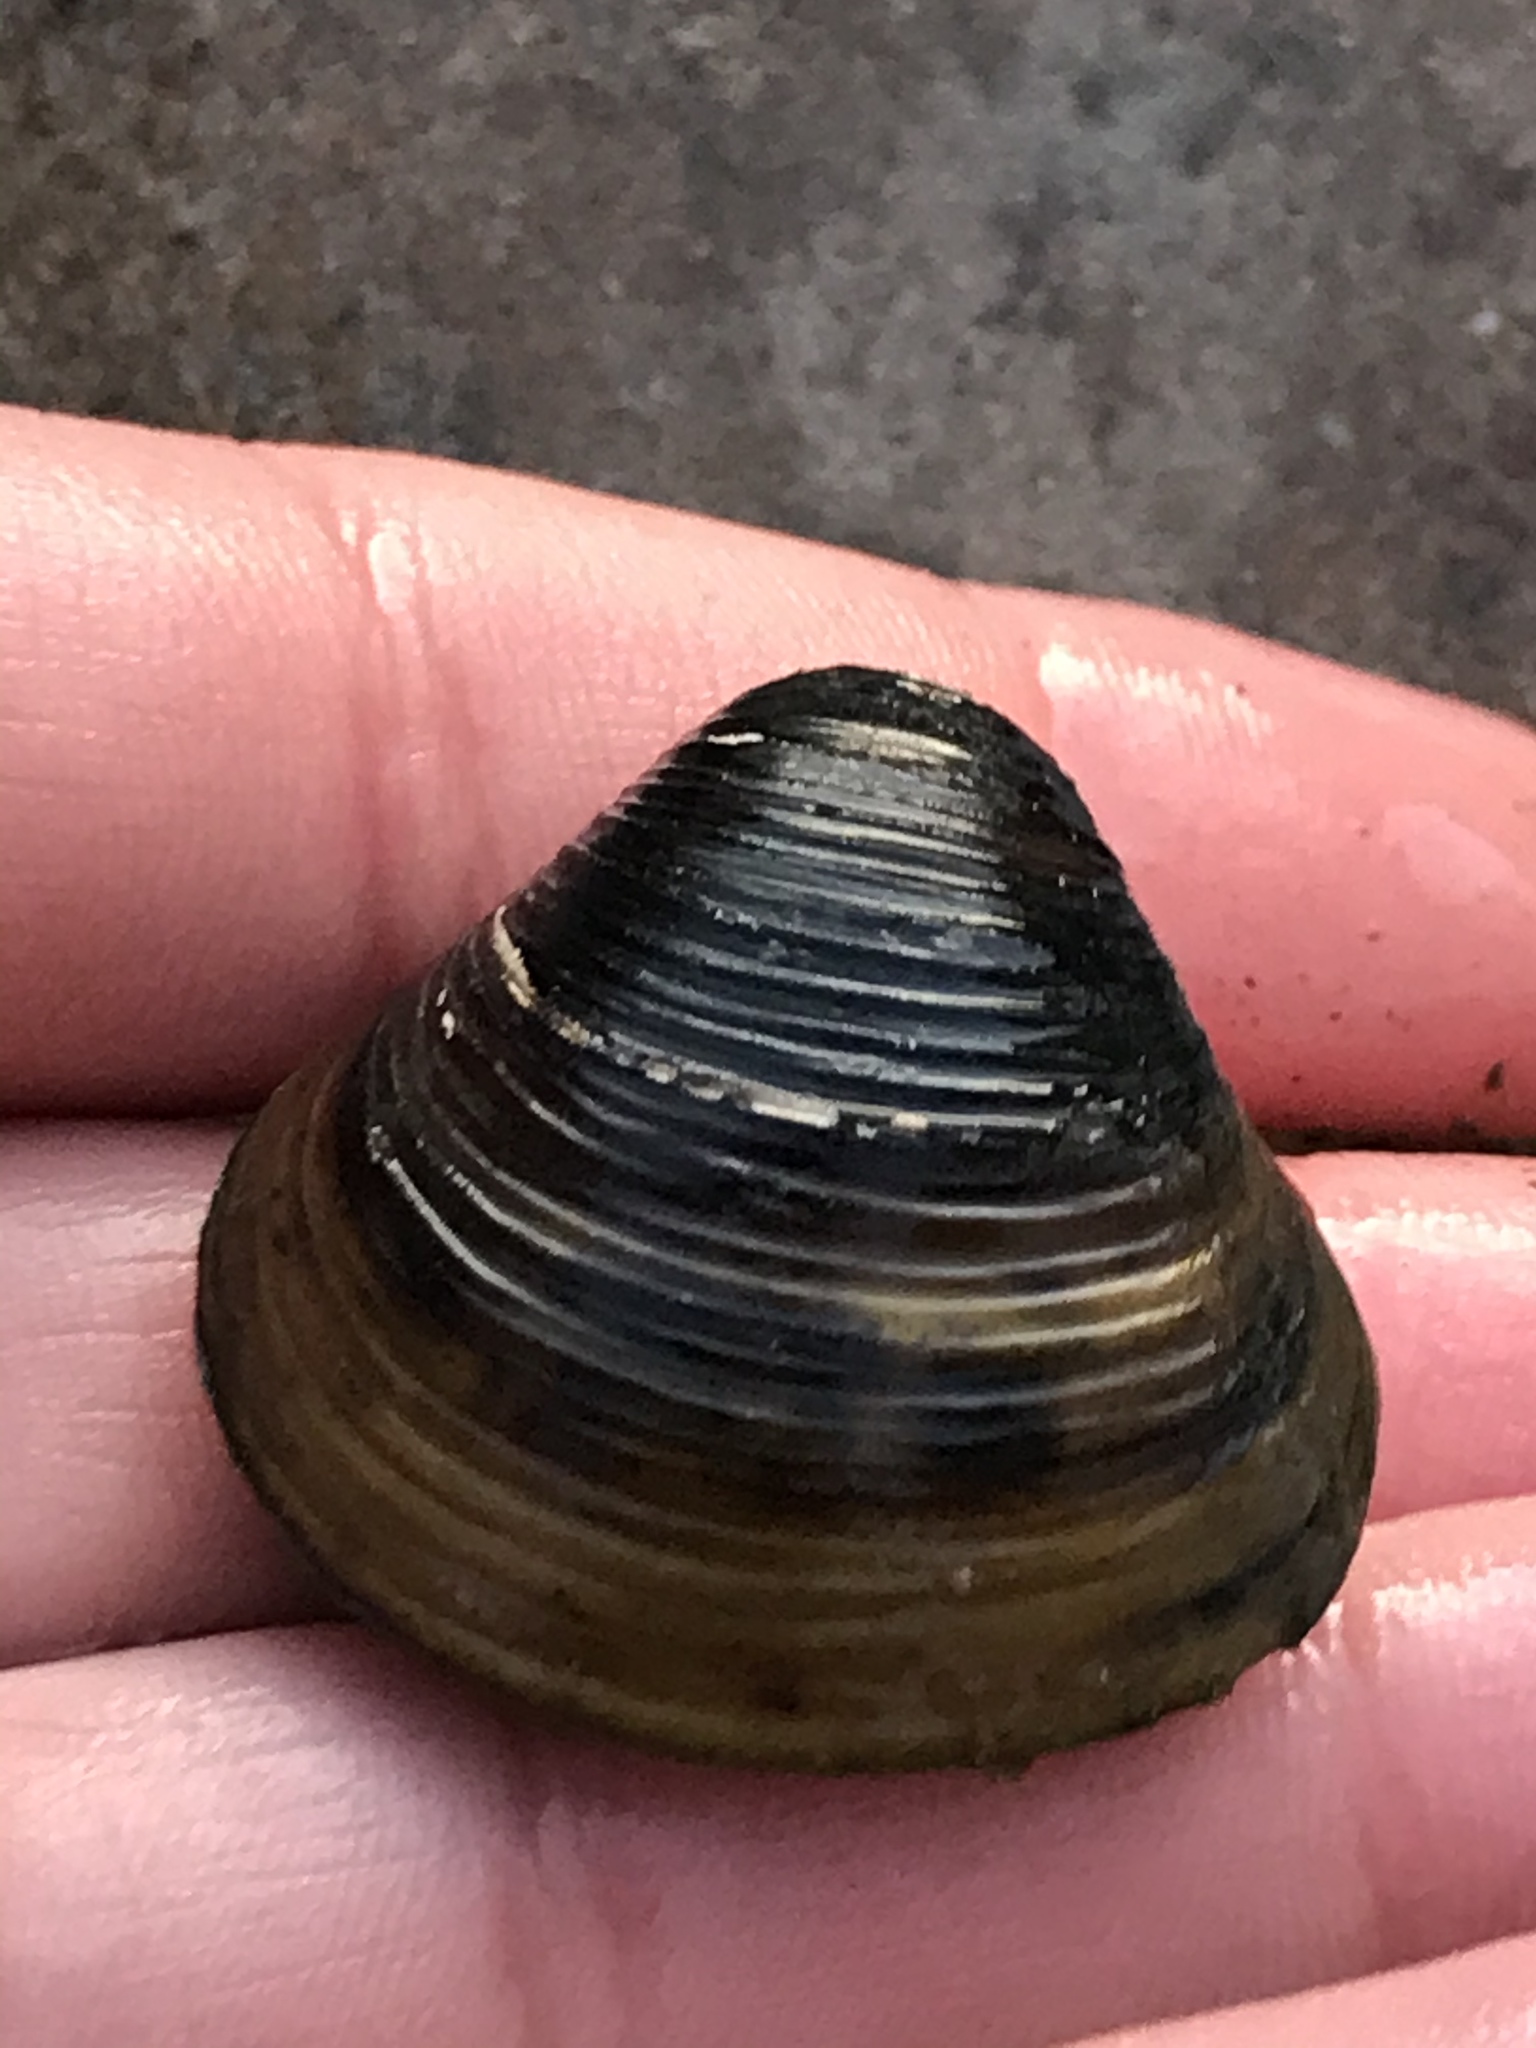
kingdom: Animalia
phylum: Mollusca
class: Bivalvia
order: Venerida
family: Cyrenidae
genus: Corbicula
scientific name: Corbicula fluminea
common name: Asian clam
